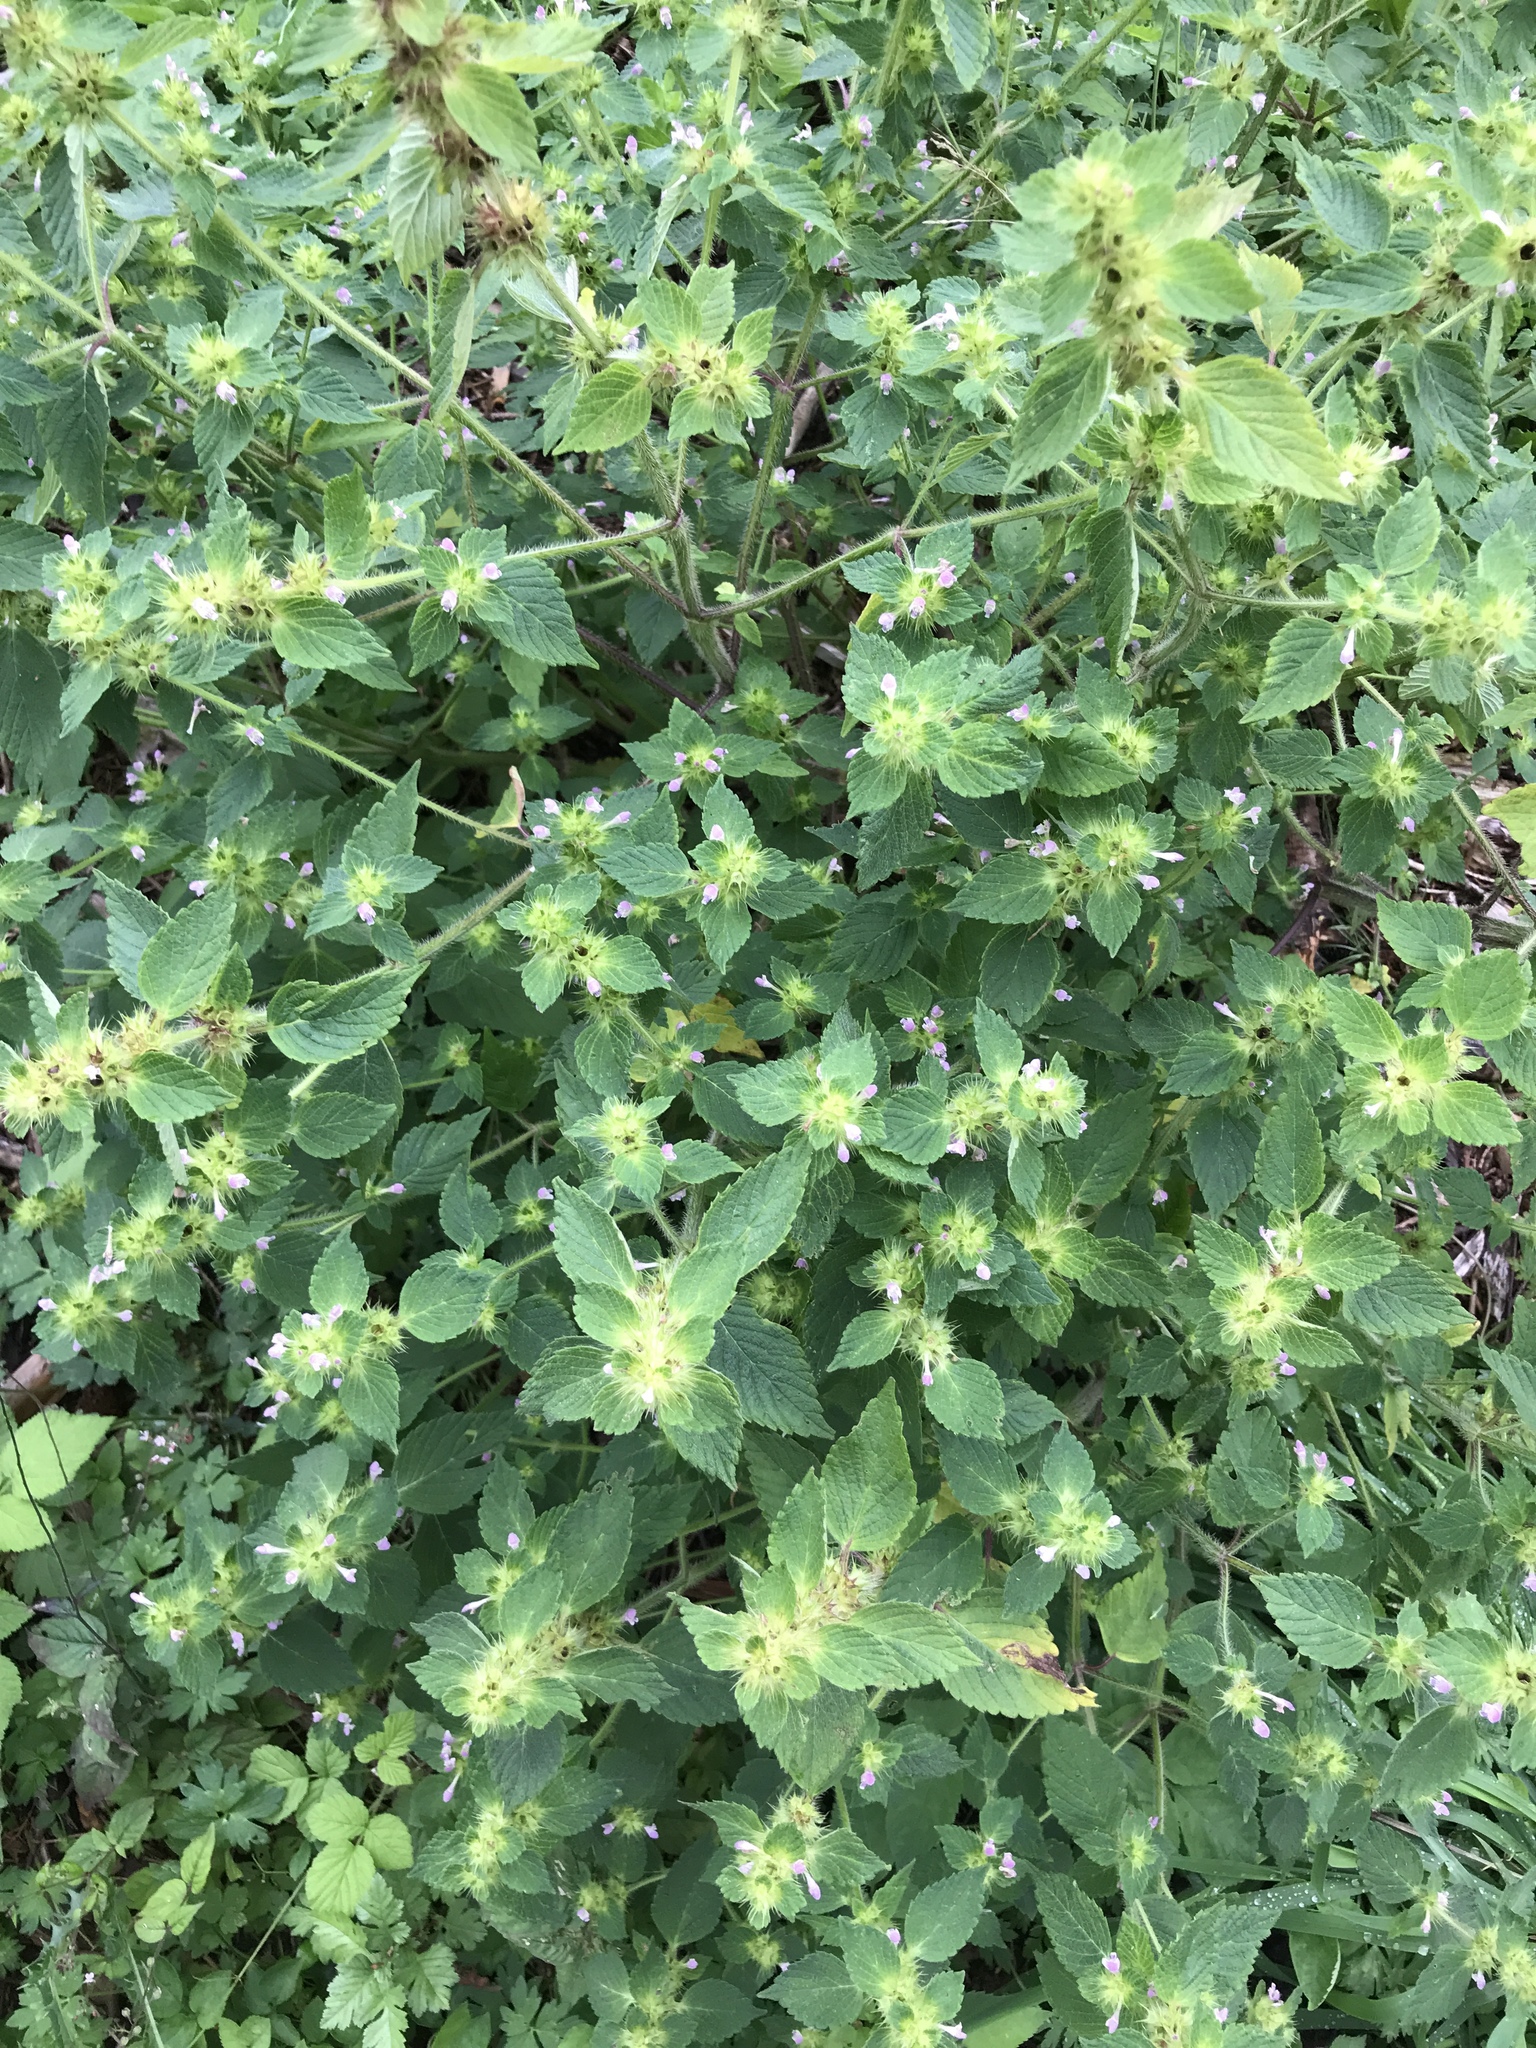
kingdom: Plantae
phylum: Tracheophyta
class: Magnoliopsida
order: Lamiales
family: Lamiaceae
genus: Galeopsis
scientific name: Galeopsis bifida
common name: Bifid hemp-nettle
